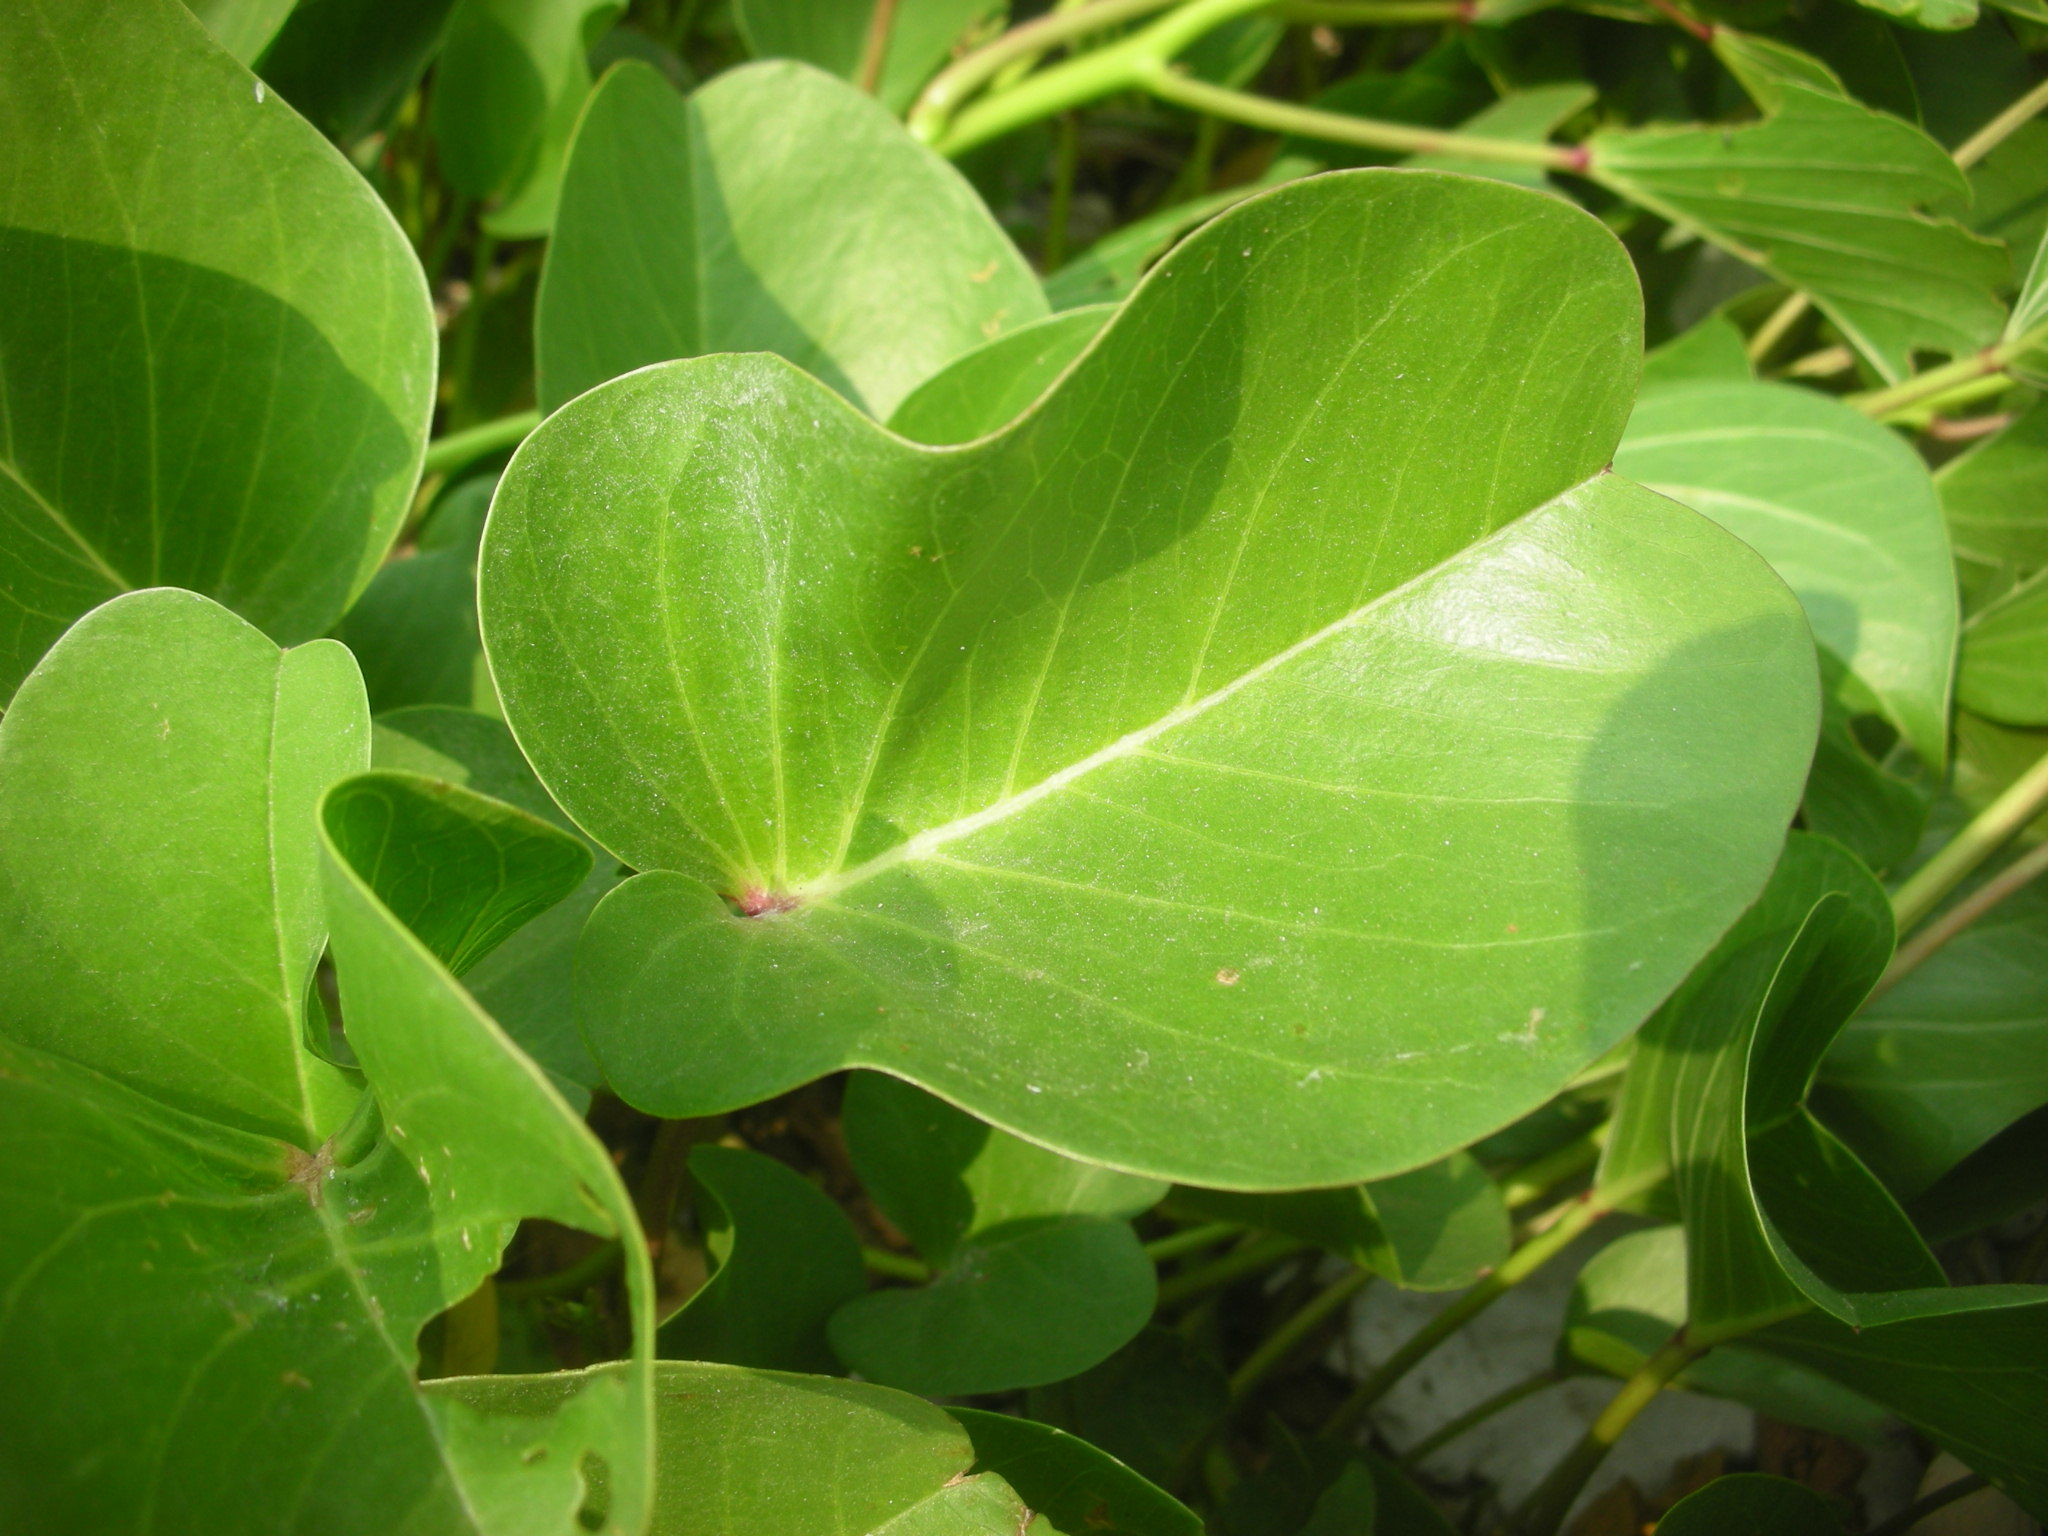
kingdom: Plantae
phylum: Tracheophyta
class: Magnoliopsida
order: Solanales
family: Convolvulaceae
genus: Ipomoea
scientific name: Ipomoea pes-caprae
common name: Beach morning glory
